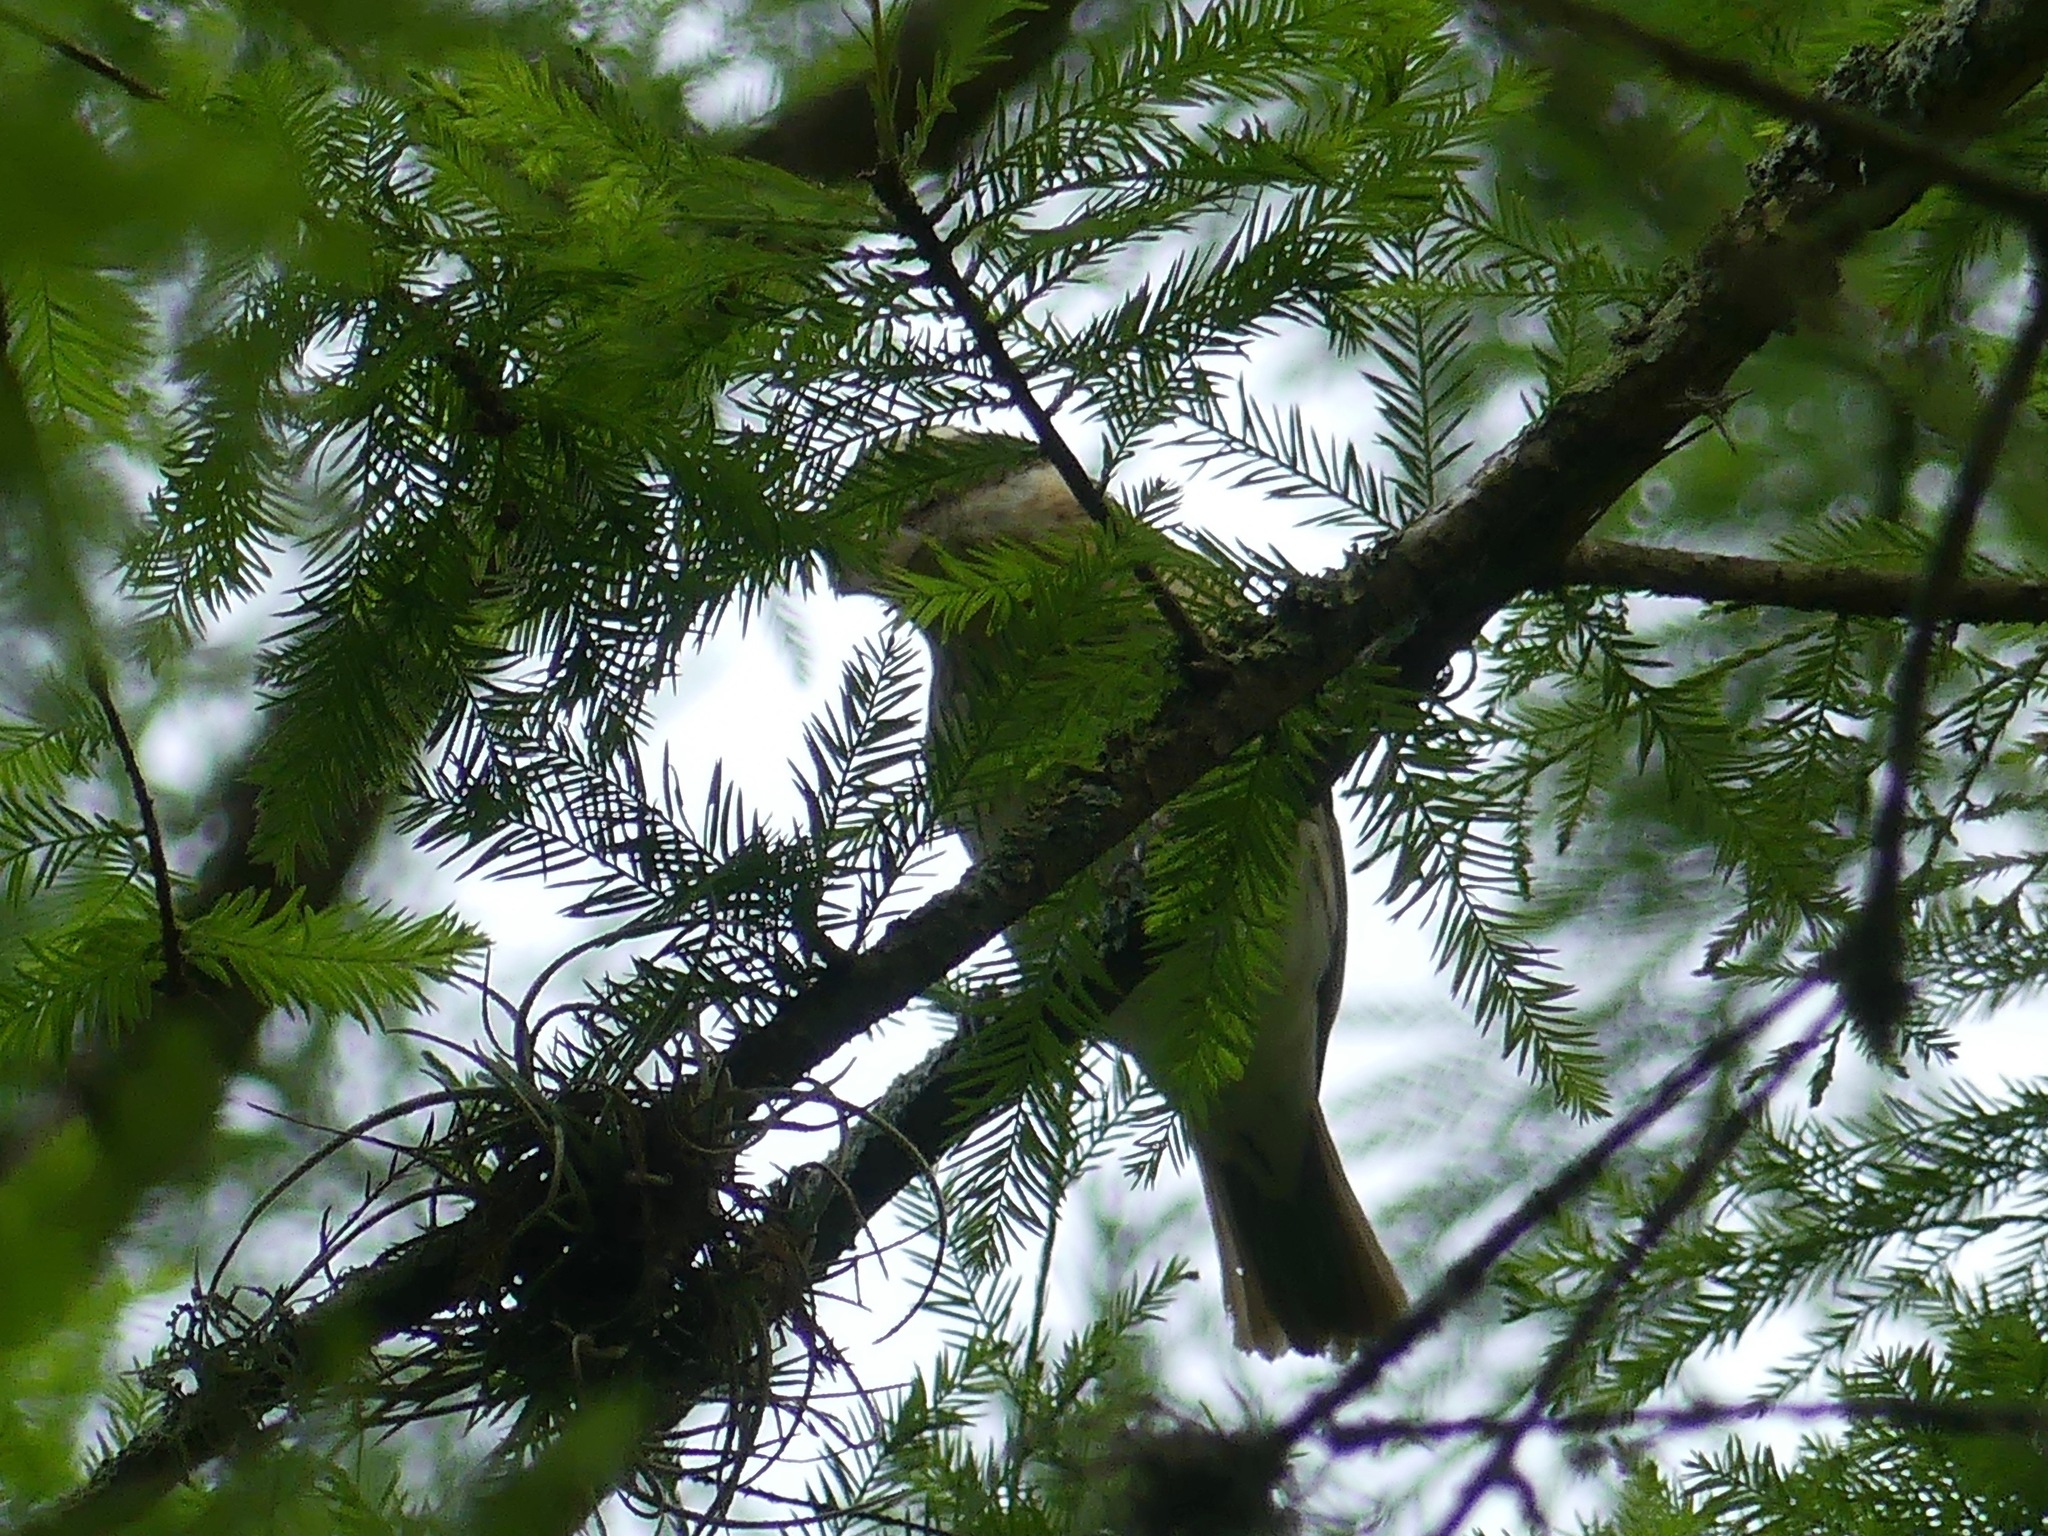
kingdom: Animalia
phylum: Chordata
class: Aves
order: Passeriformes
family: Cardinalidae
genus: Pheucticus
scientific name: Pheucticus ludovicianus
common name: Rose-breasted grosbeak
